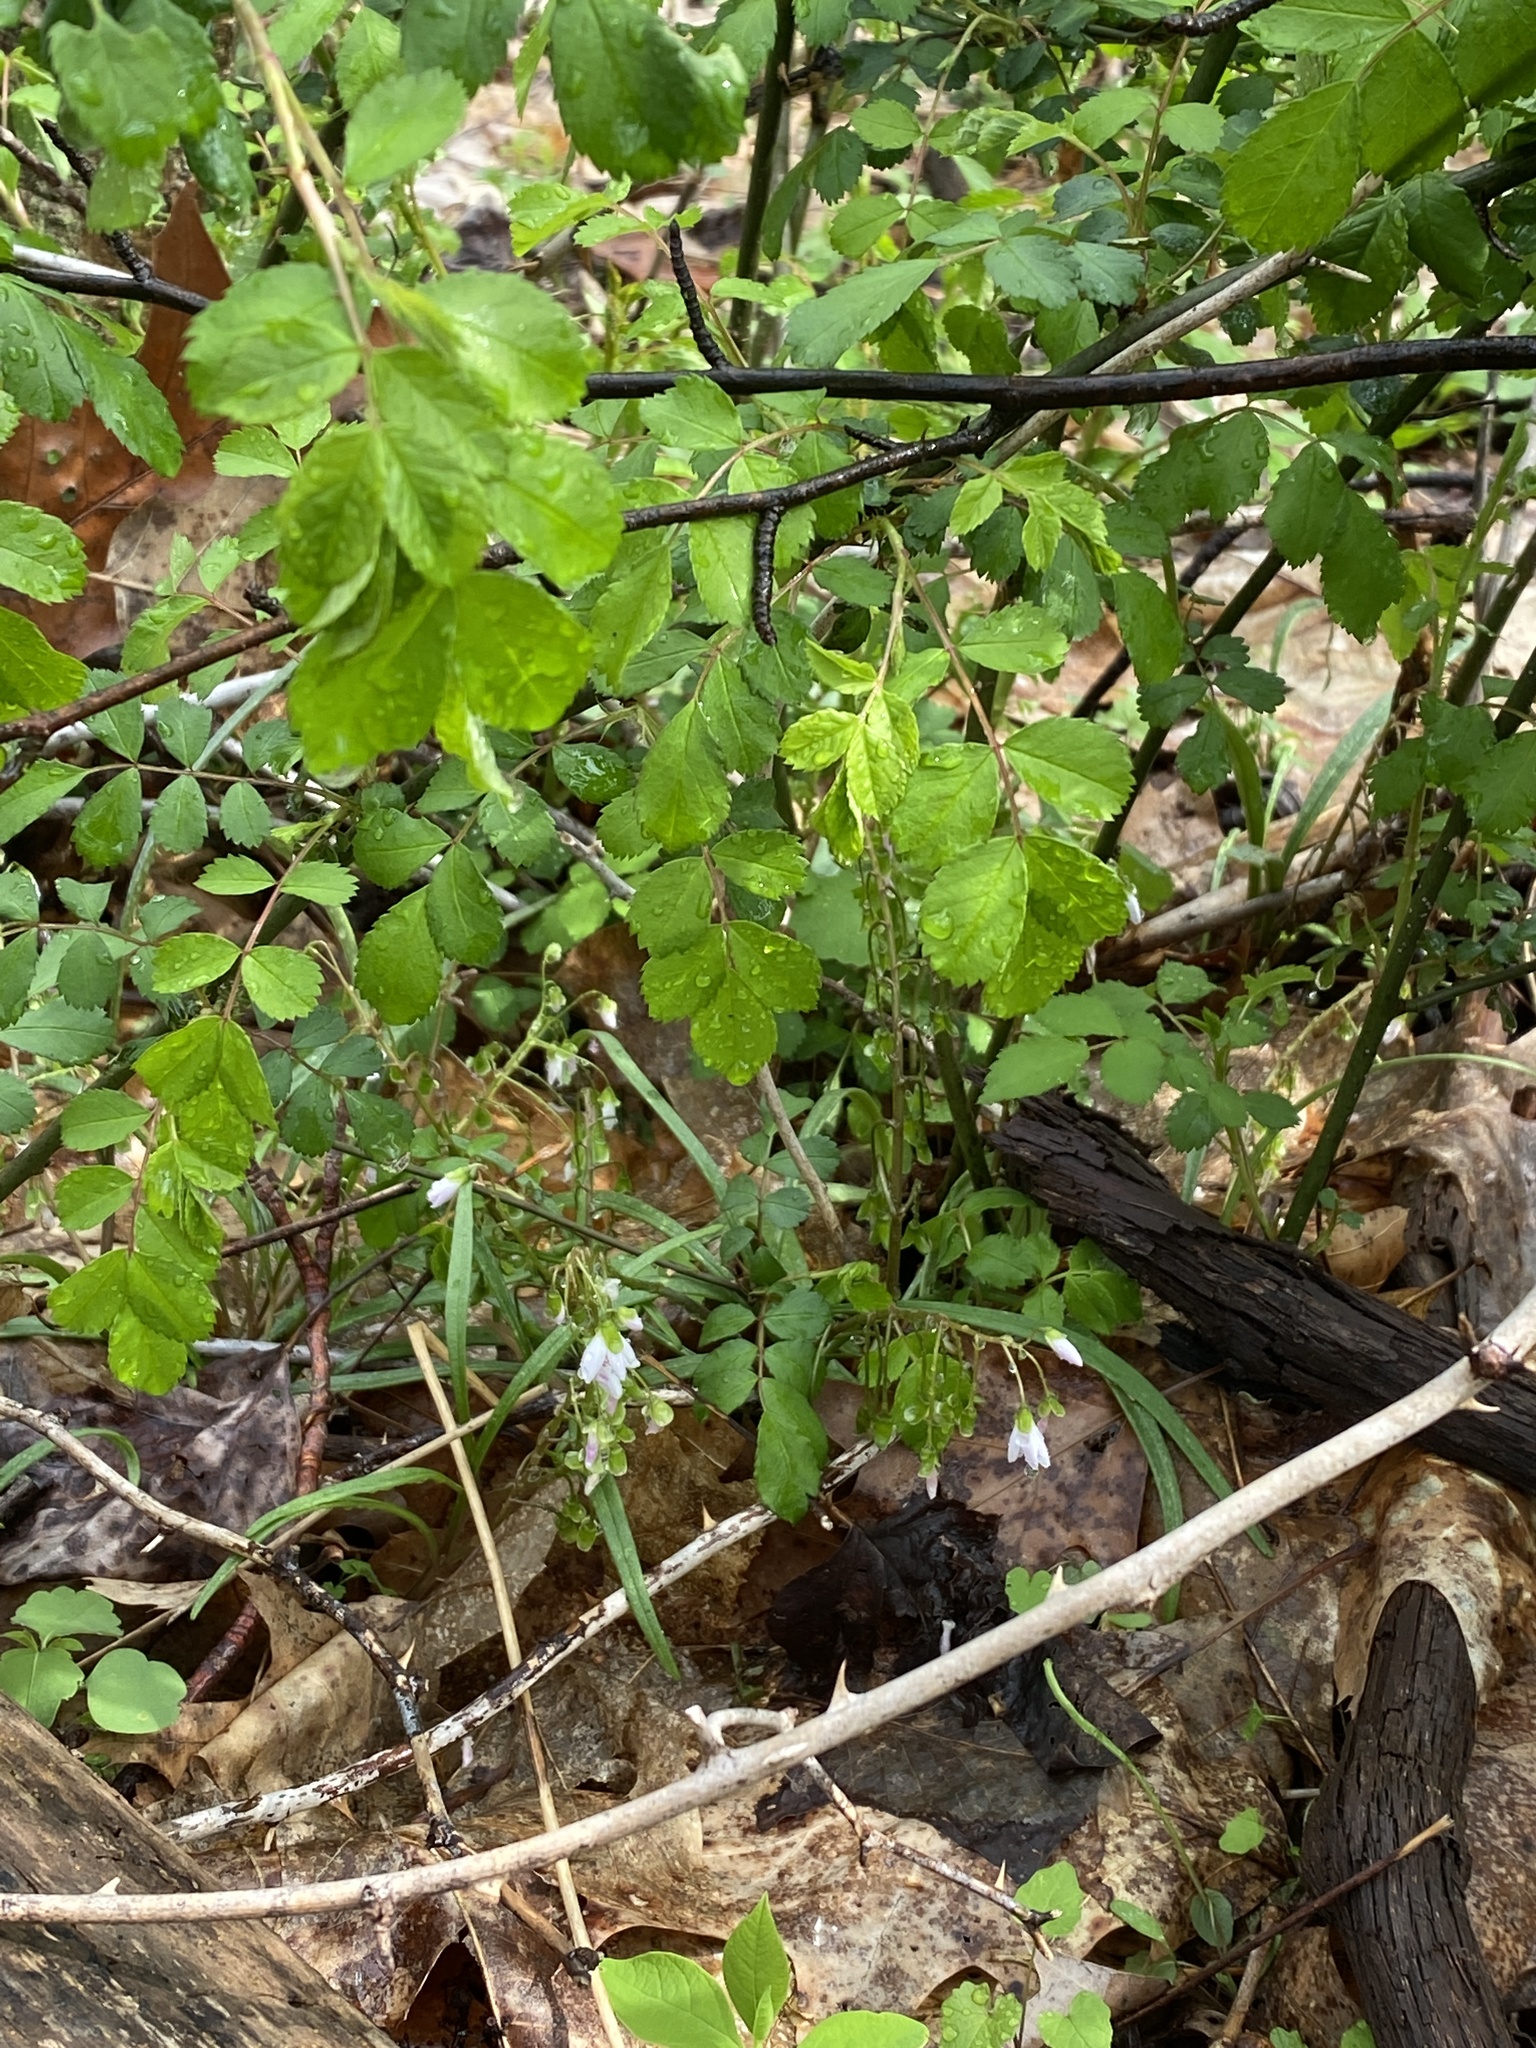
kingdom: Plantae
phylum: Tracheophyta
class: Magnoliopsida
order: Caryophyllales
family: Montiaceae
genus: Claytonia
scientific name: Claytonia virginica
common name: Virginia springbeauty
